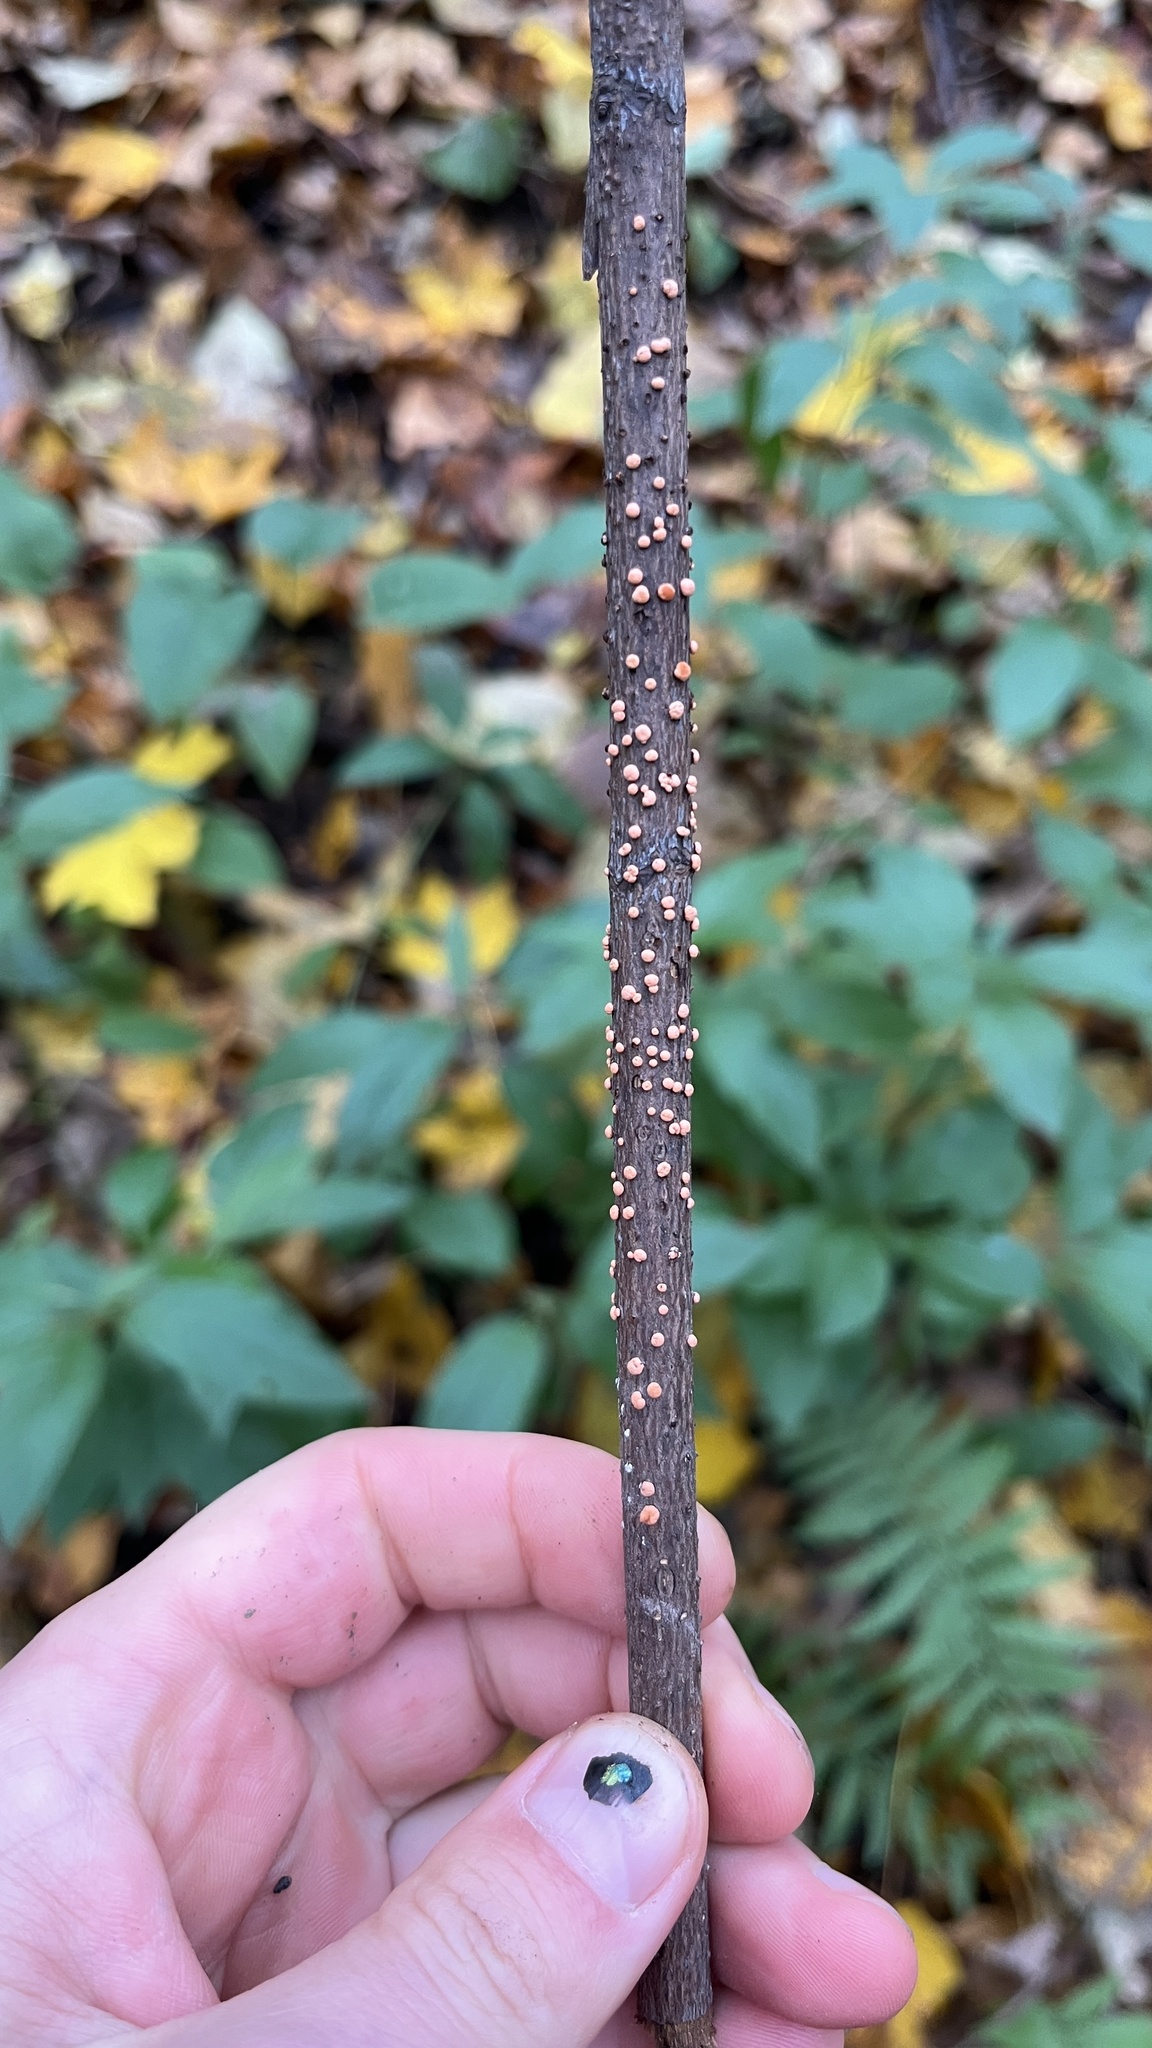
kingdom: Fungi
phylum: Ascomycota
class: Sordariomycetes
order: Hypocreales
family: Nectriaceae
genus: Nectria
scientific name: Nectria cinnabarina
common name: Coral spot
